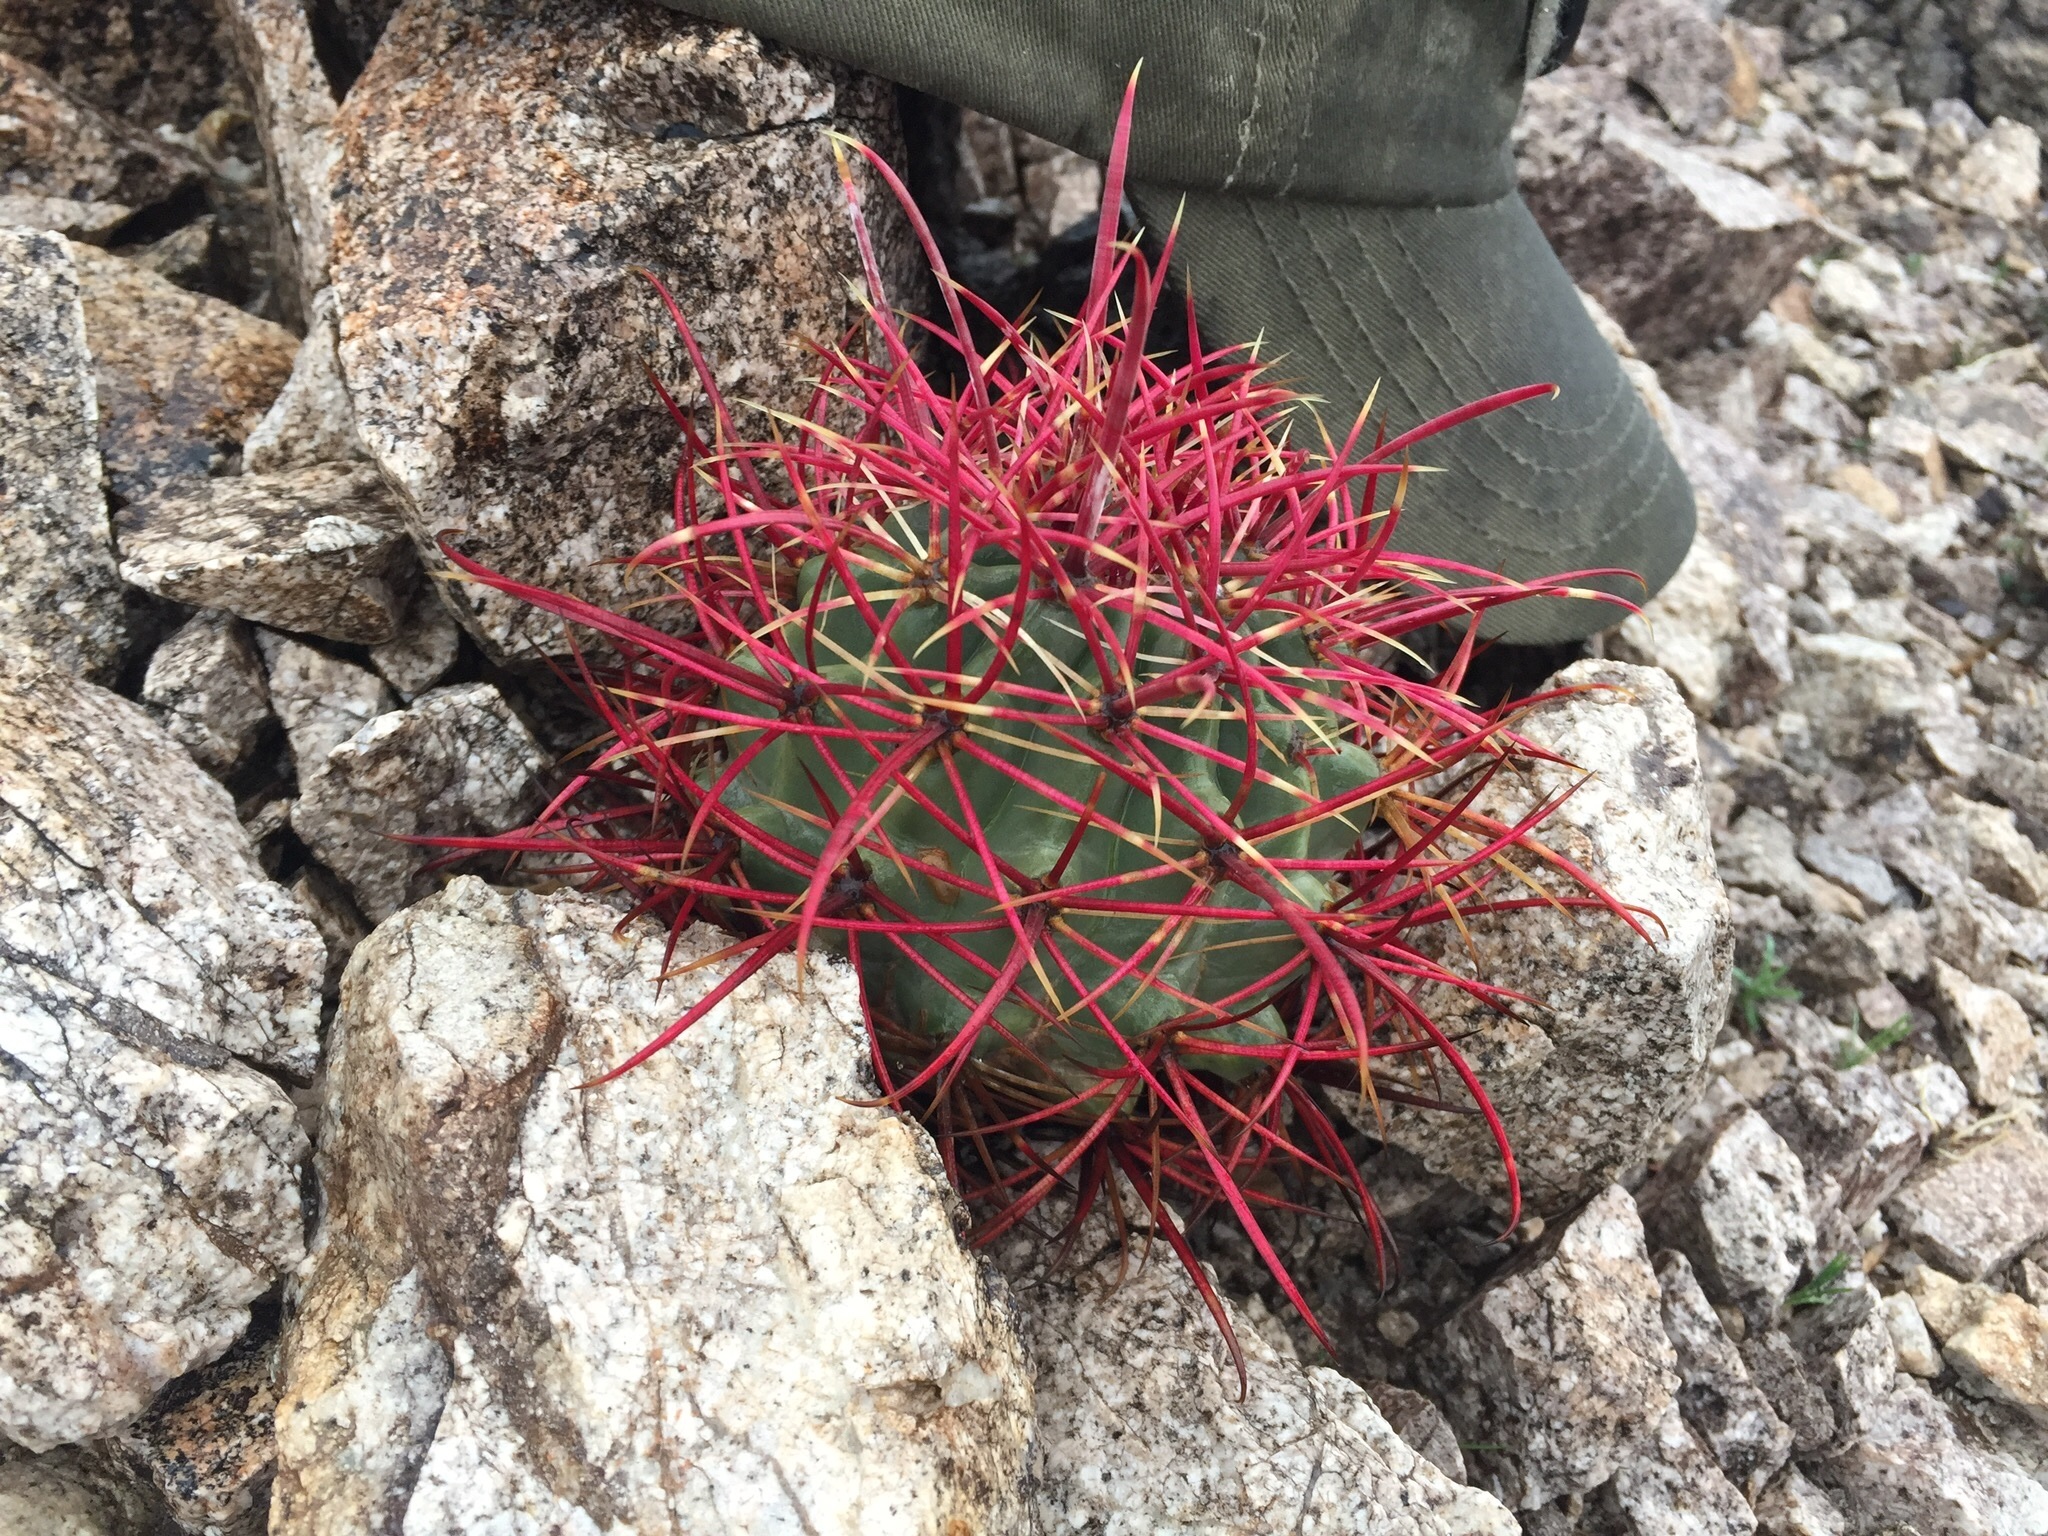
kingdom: Plantae
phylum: Tracheophyta
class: Magnoliopsida
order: Caryophyllales
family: Cactaceae
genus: Ferocactus
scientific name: Ferocactus cylindraceus
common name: California barrel cactus
